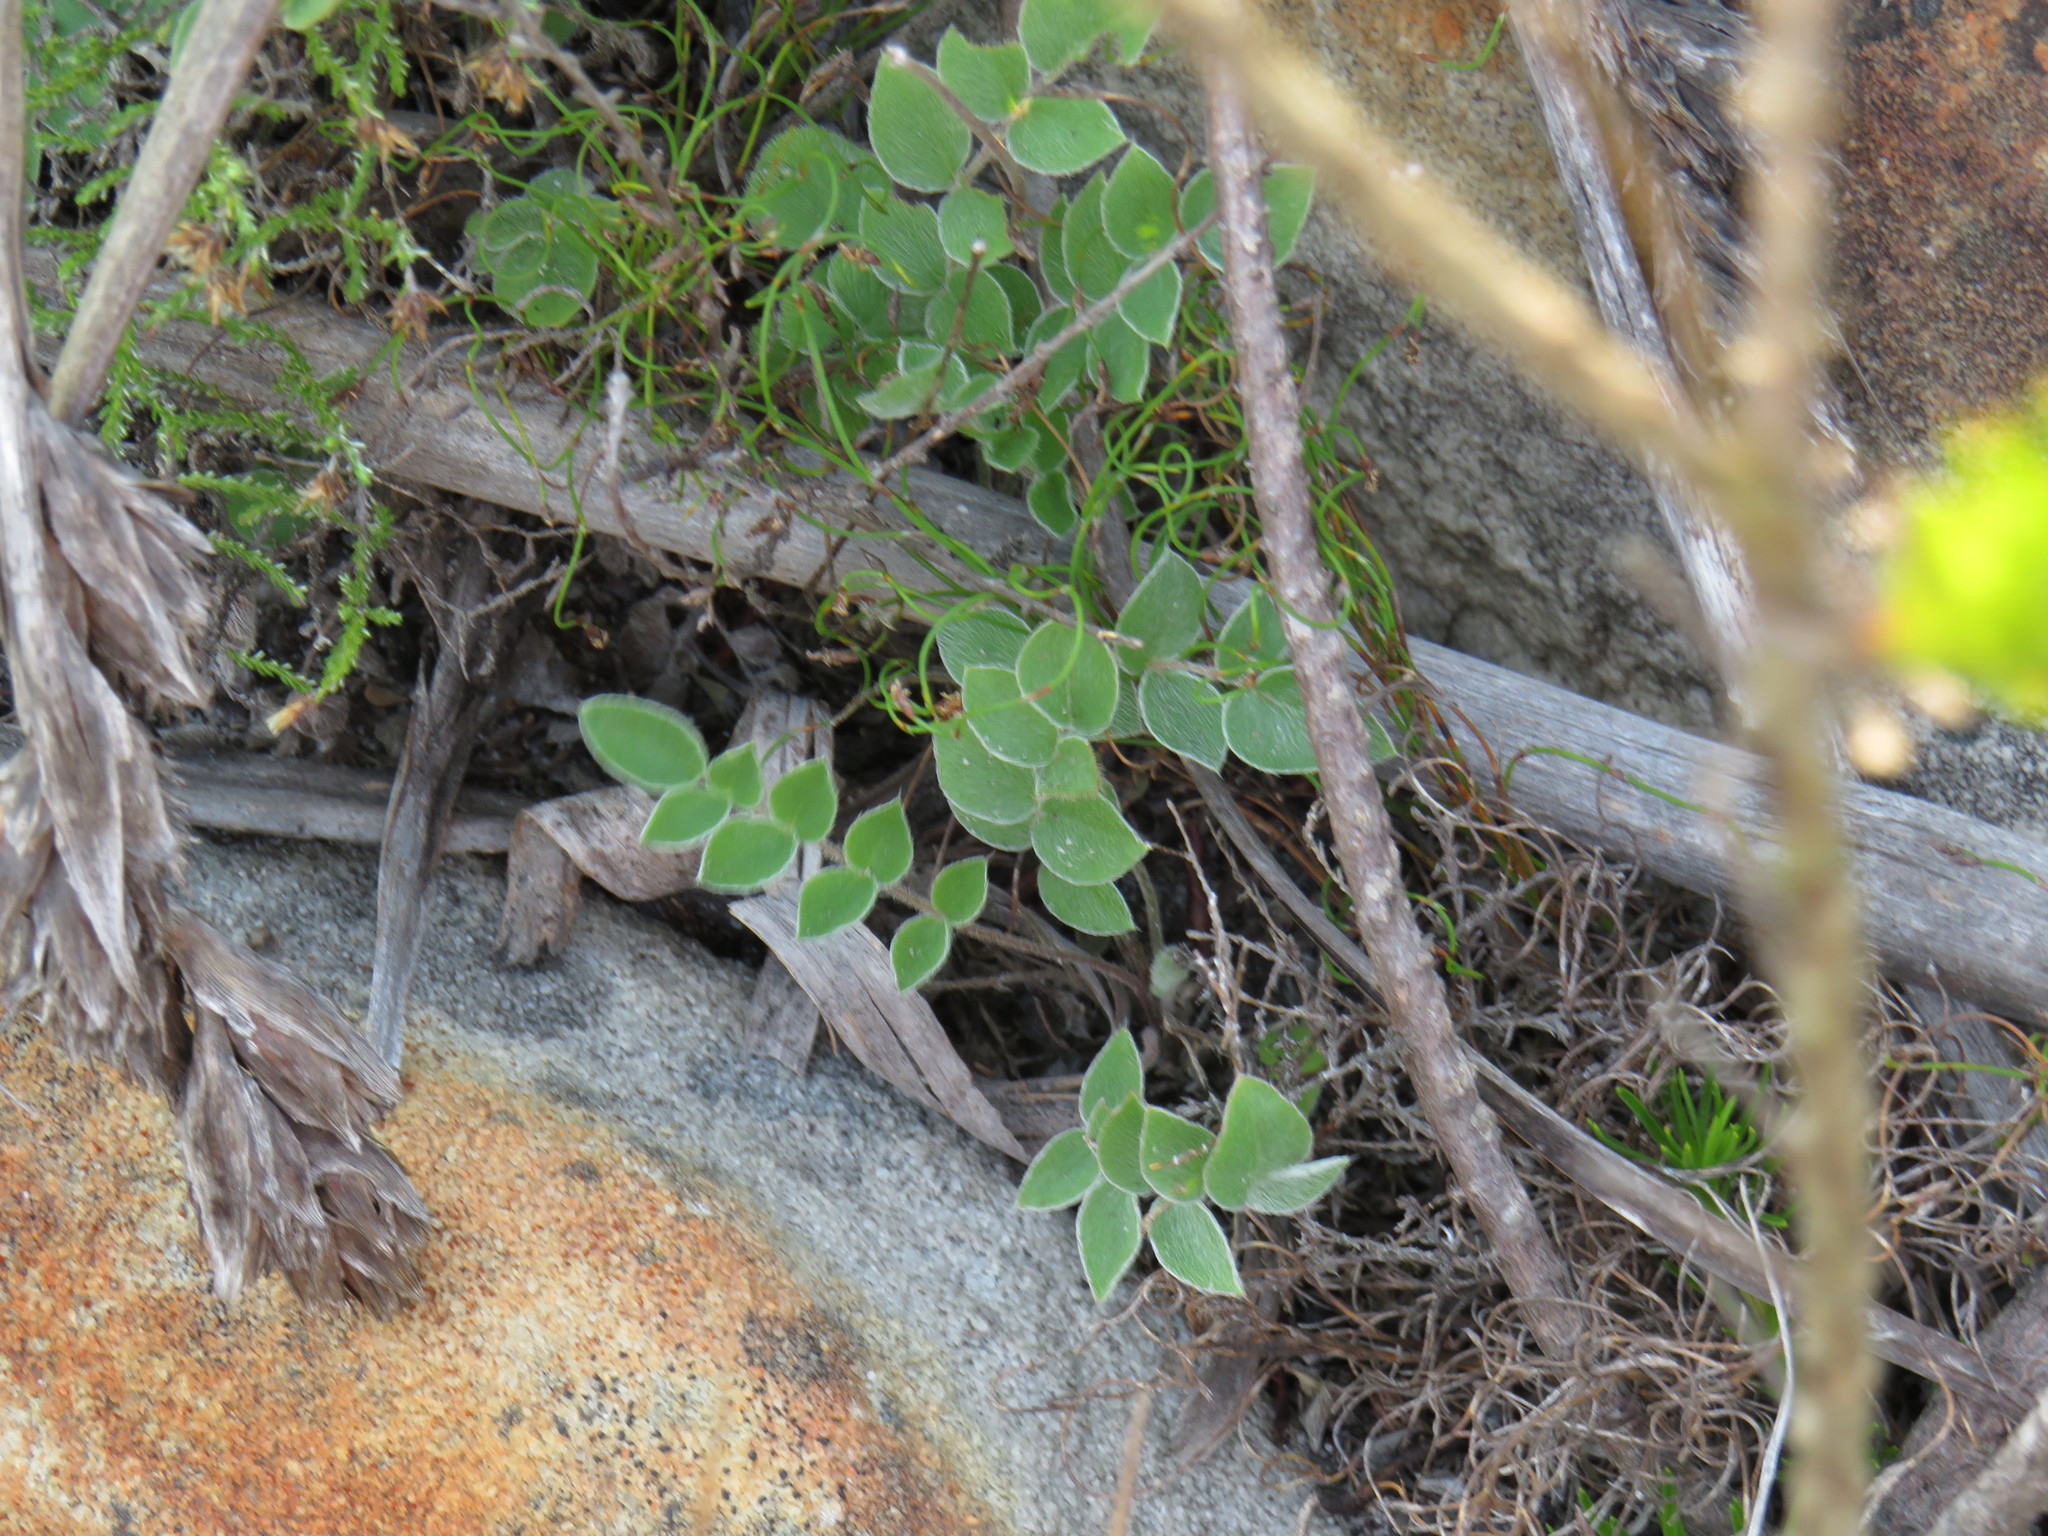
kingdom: Plantae
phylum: Tracheophyta
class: Magnoliopsida
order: Geraniales
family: Geraniaceae
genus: Pelargonium
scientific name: Pelargonium pinnatum
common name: Pinnated pelargonium
